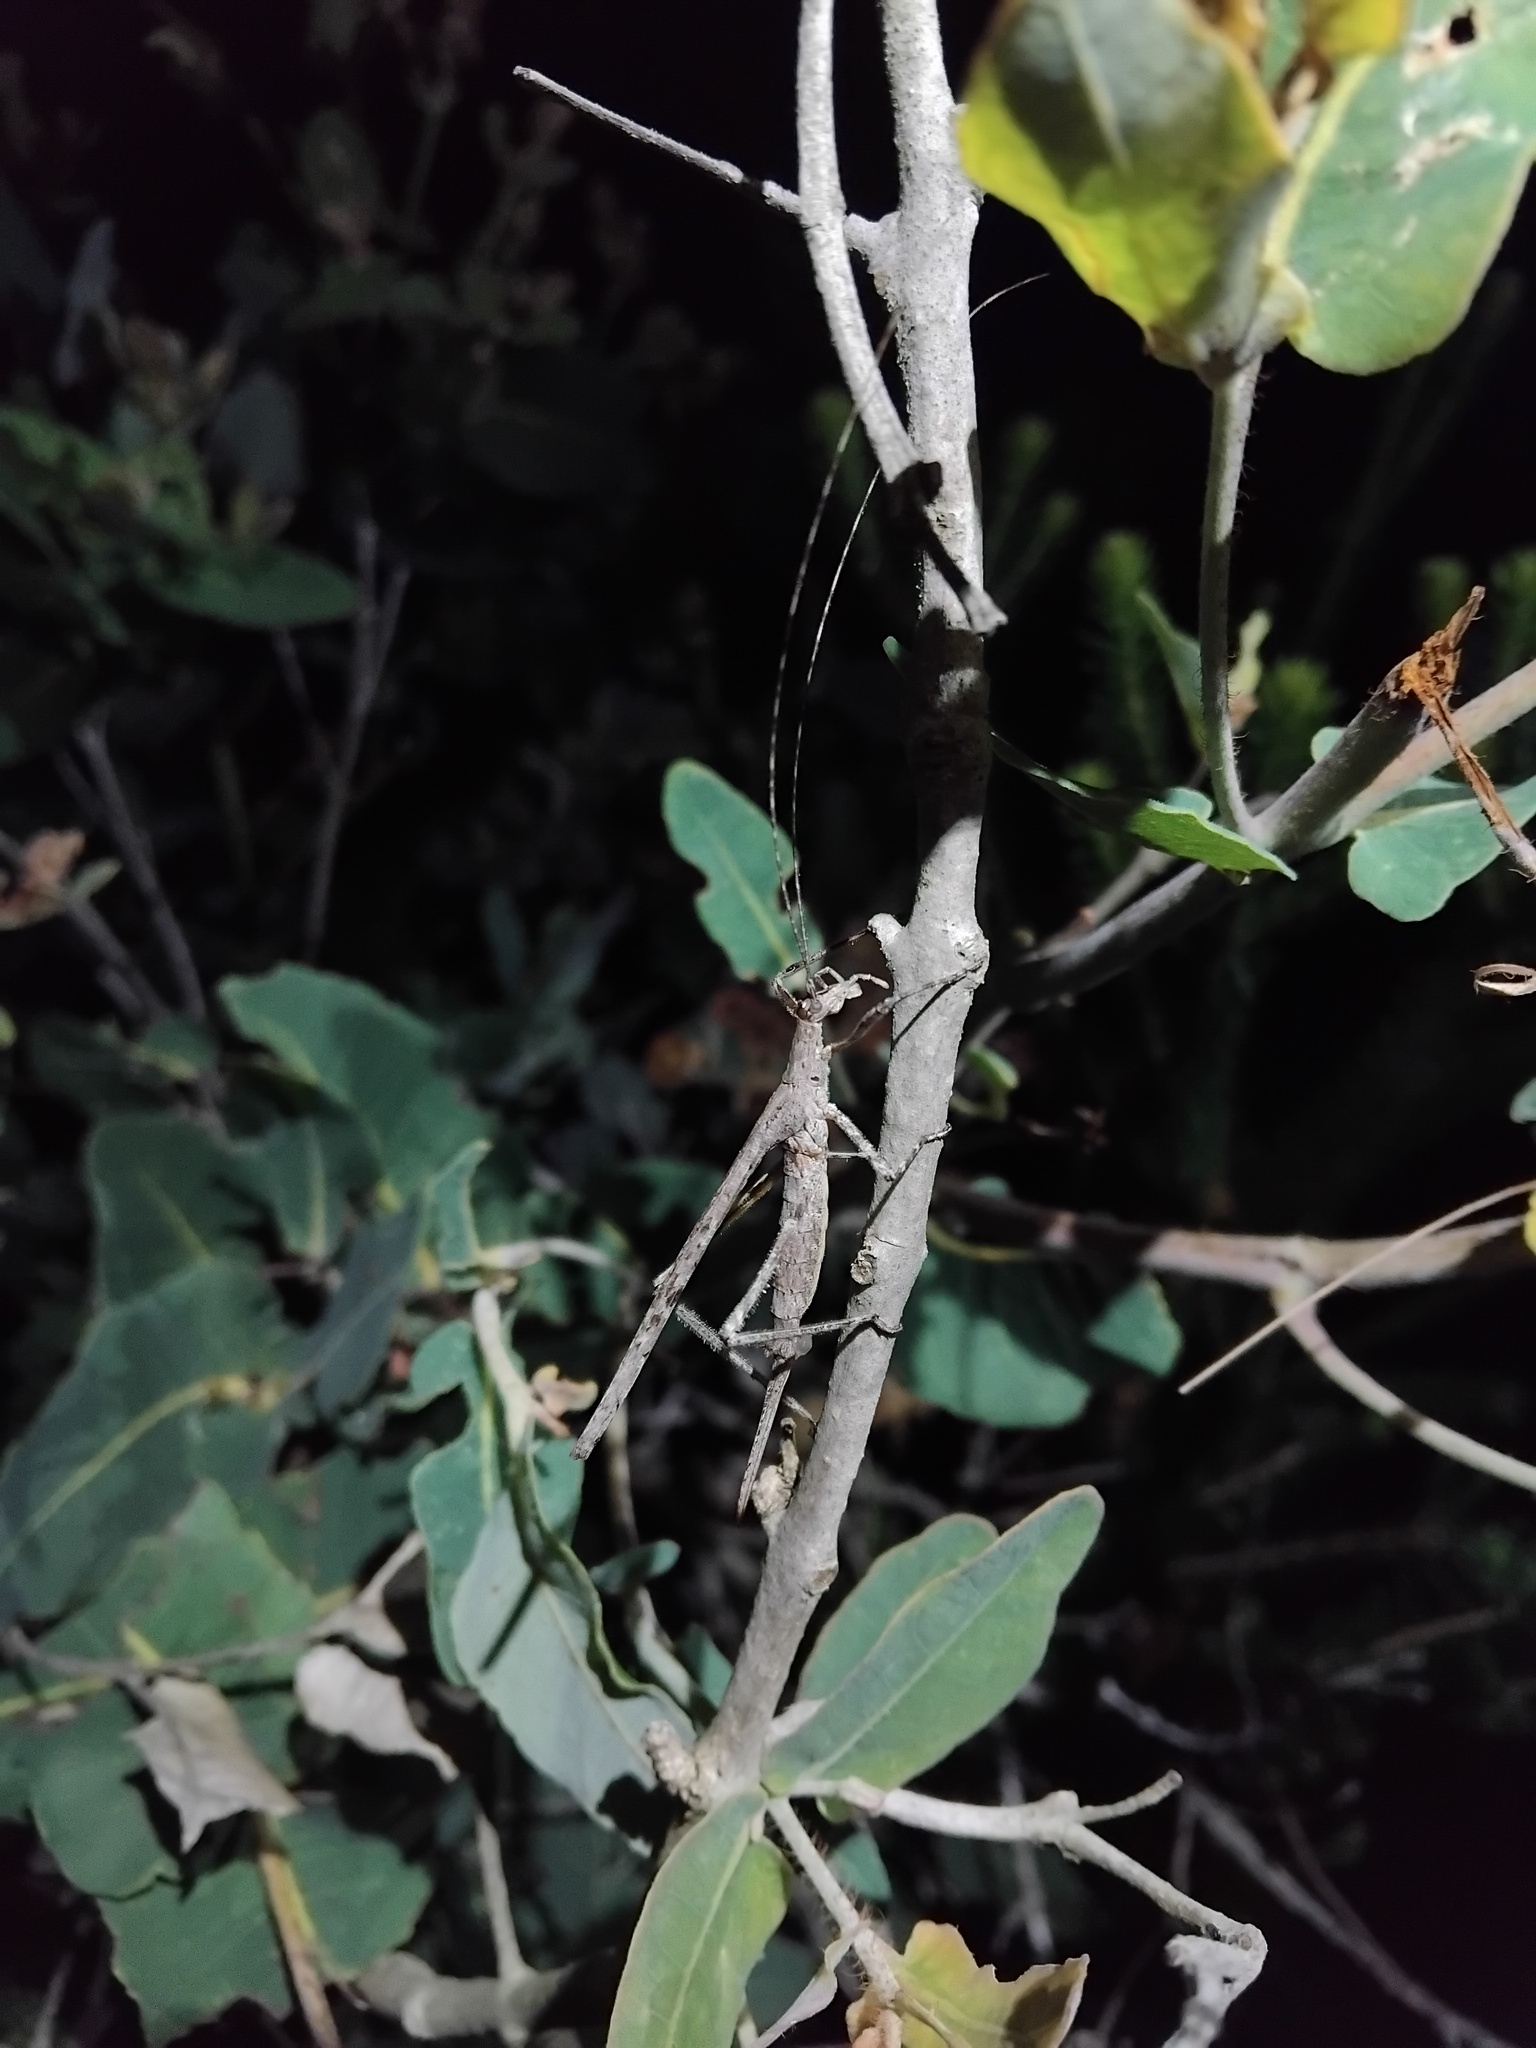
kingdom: Animalia
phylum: Arthropoda
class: Insecta
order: Orthoptera
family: Tettigoniidae
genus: Zaprochilus
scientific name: Zaprochilus australis
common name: Australian twig-mimicking katydid
